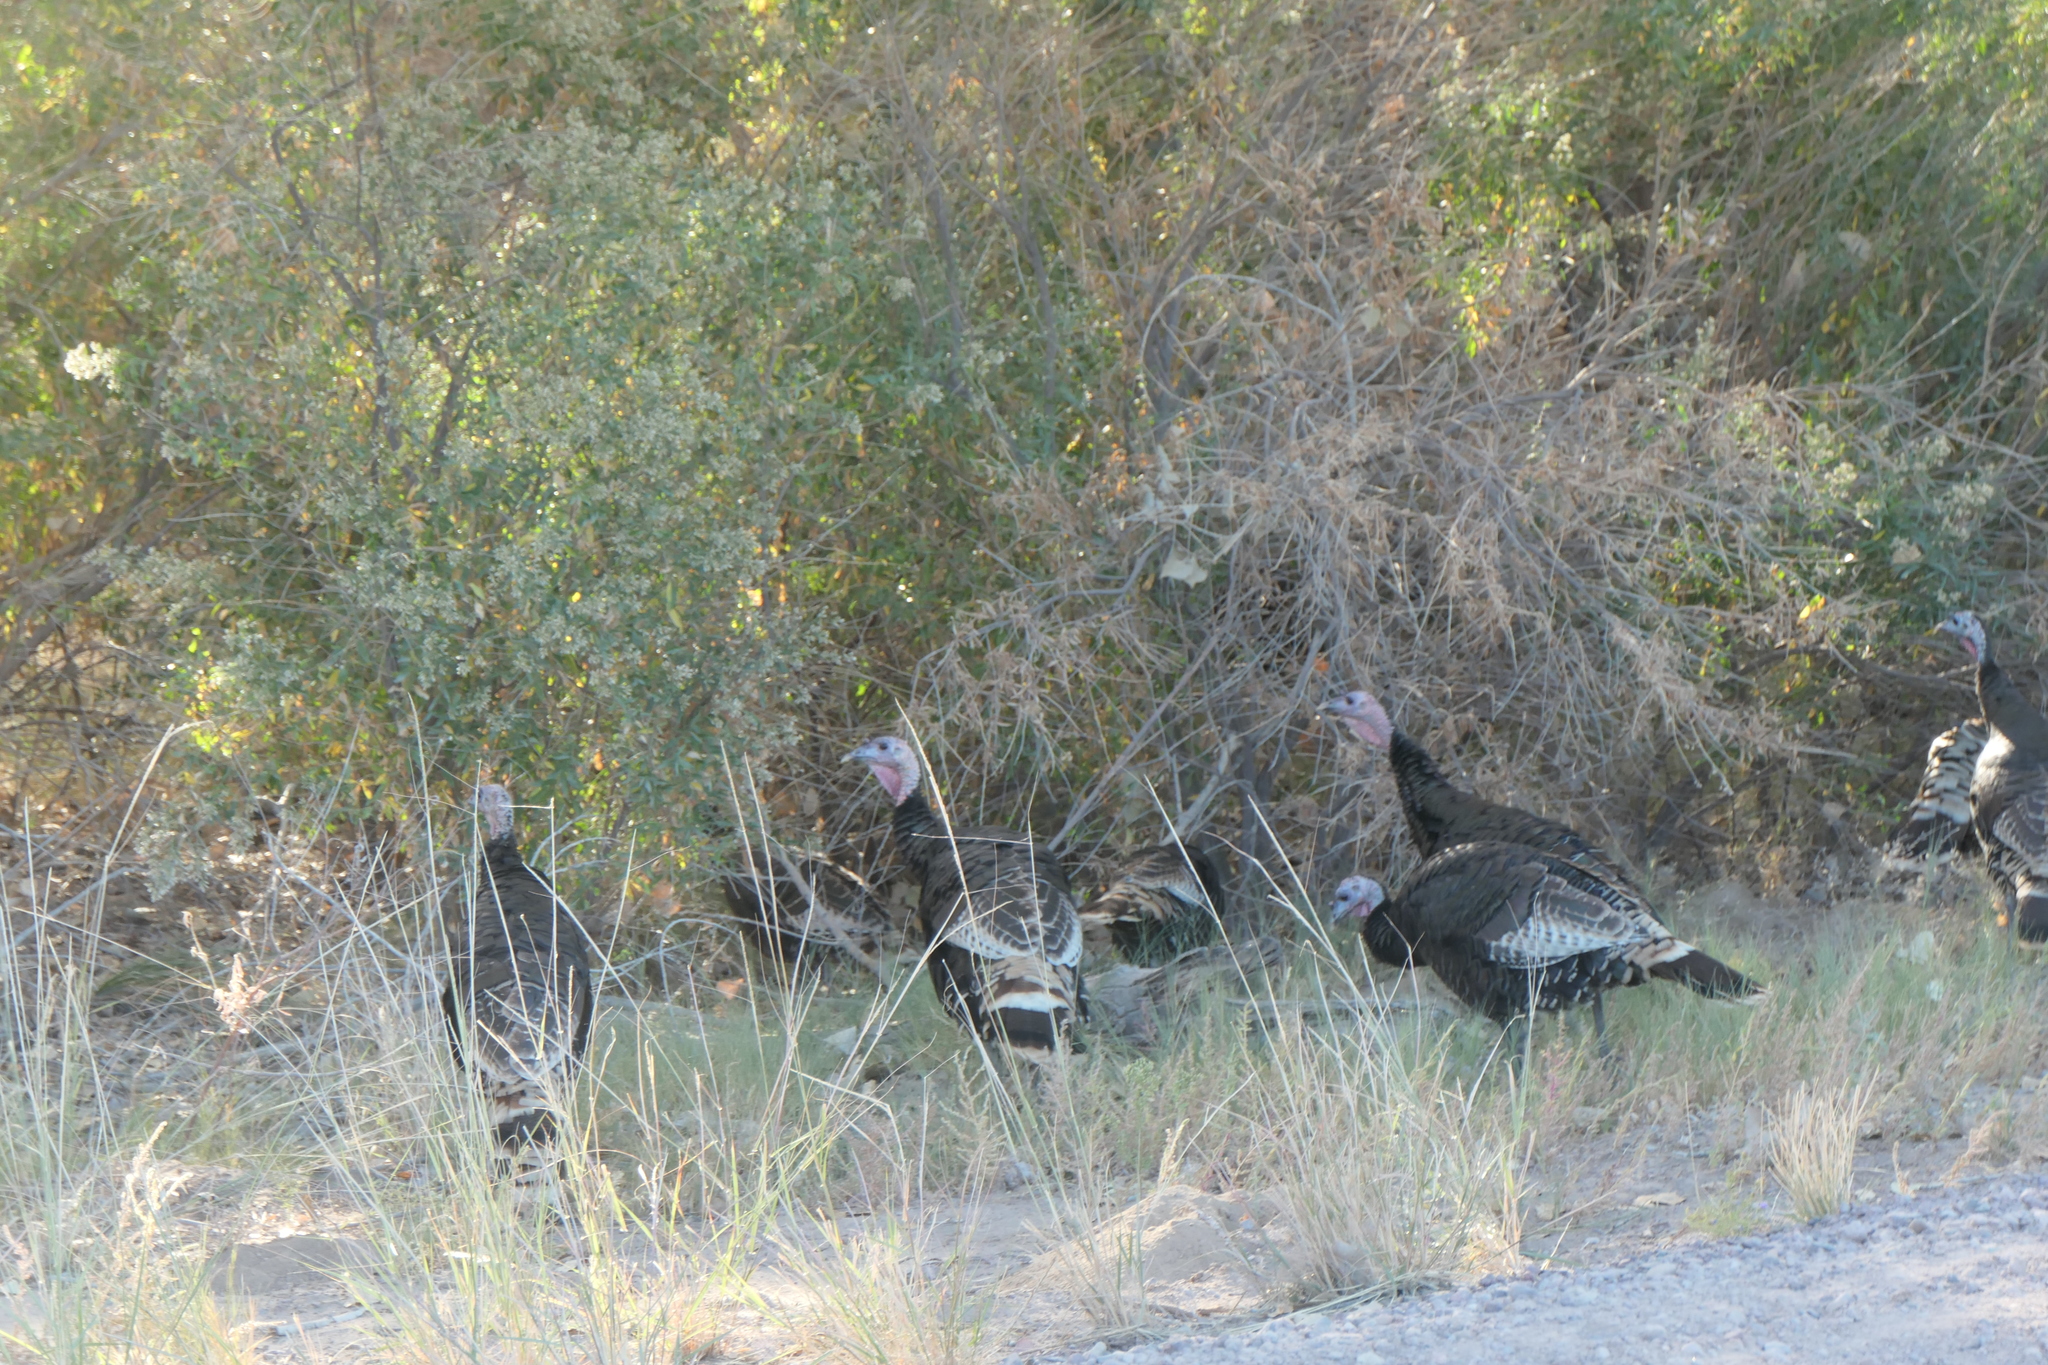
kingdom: Animalia
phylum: Chordata
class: Aves
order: Galliformes
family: Phasianidae
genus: Meleagris
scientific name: Meleagris gallopavo
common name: Wild turkey
